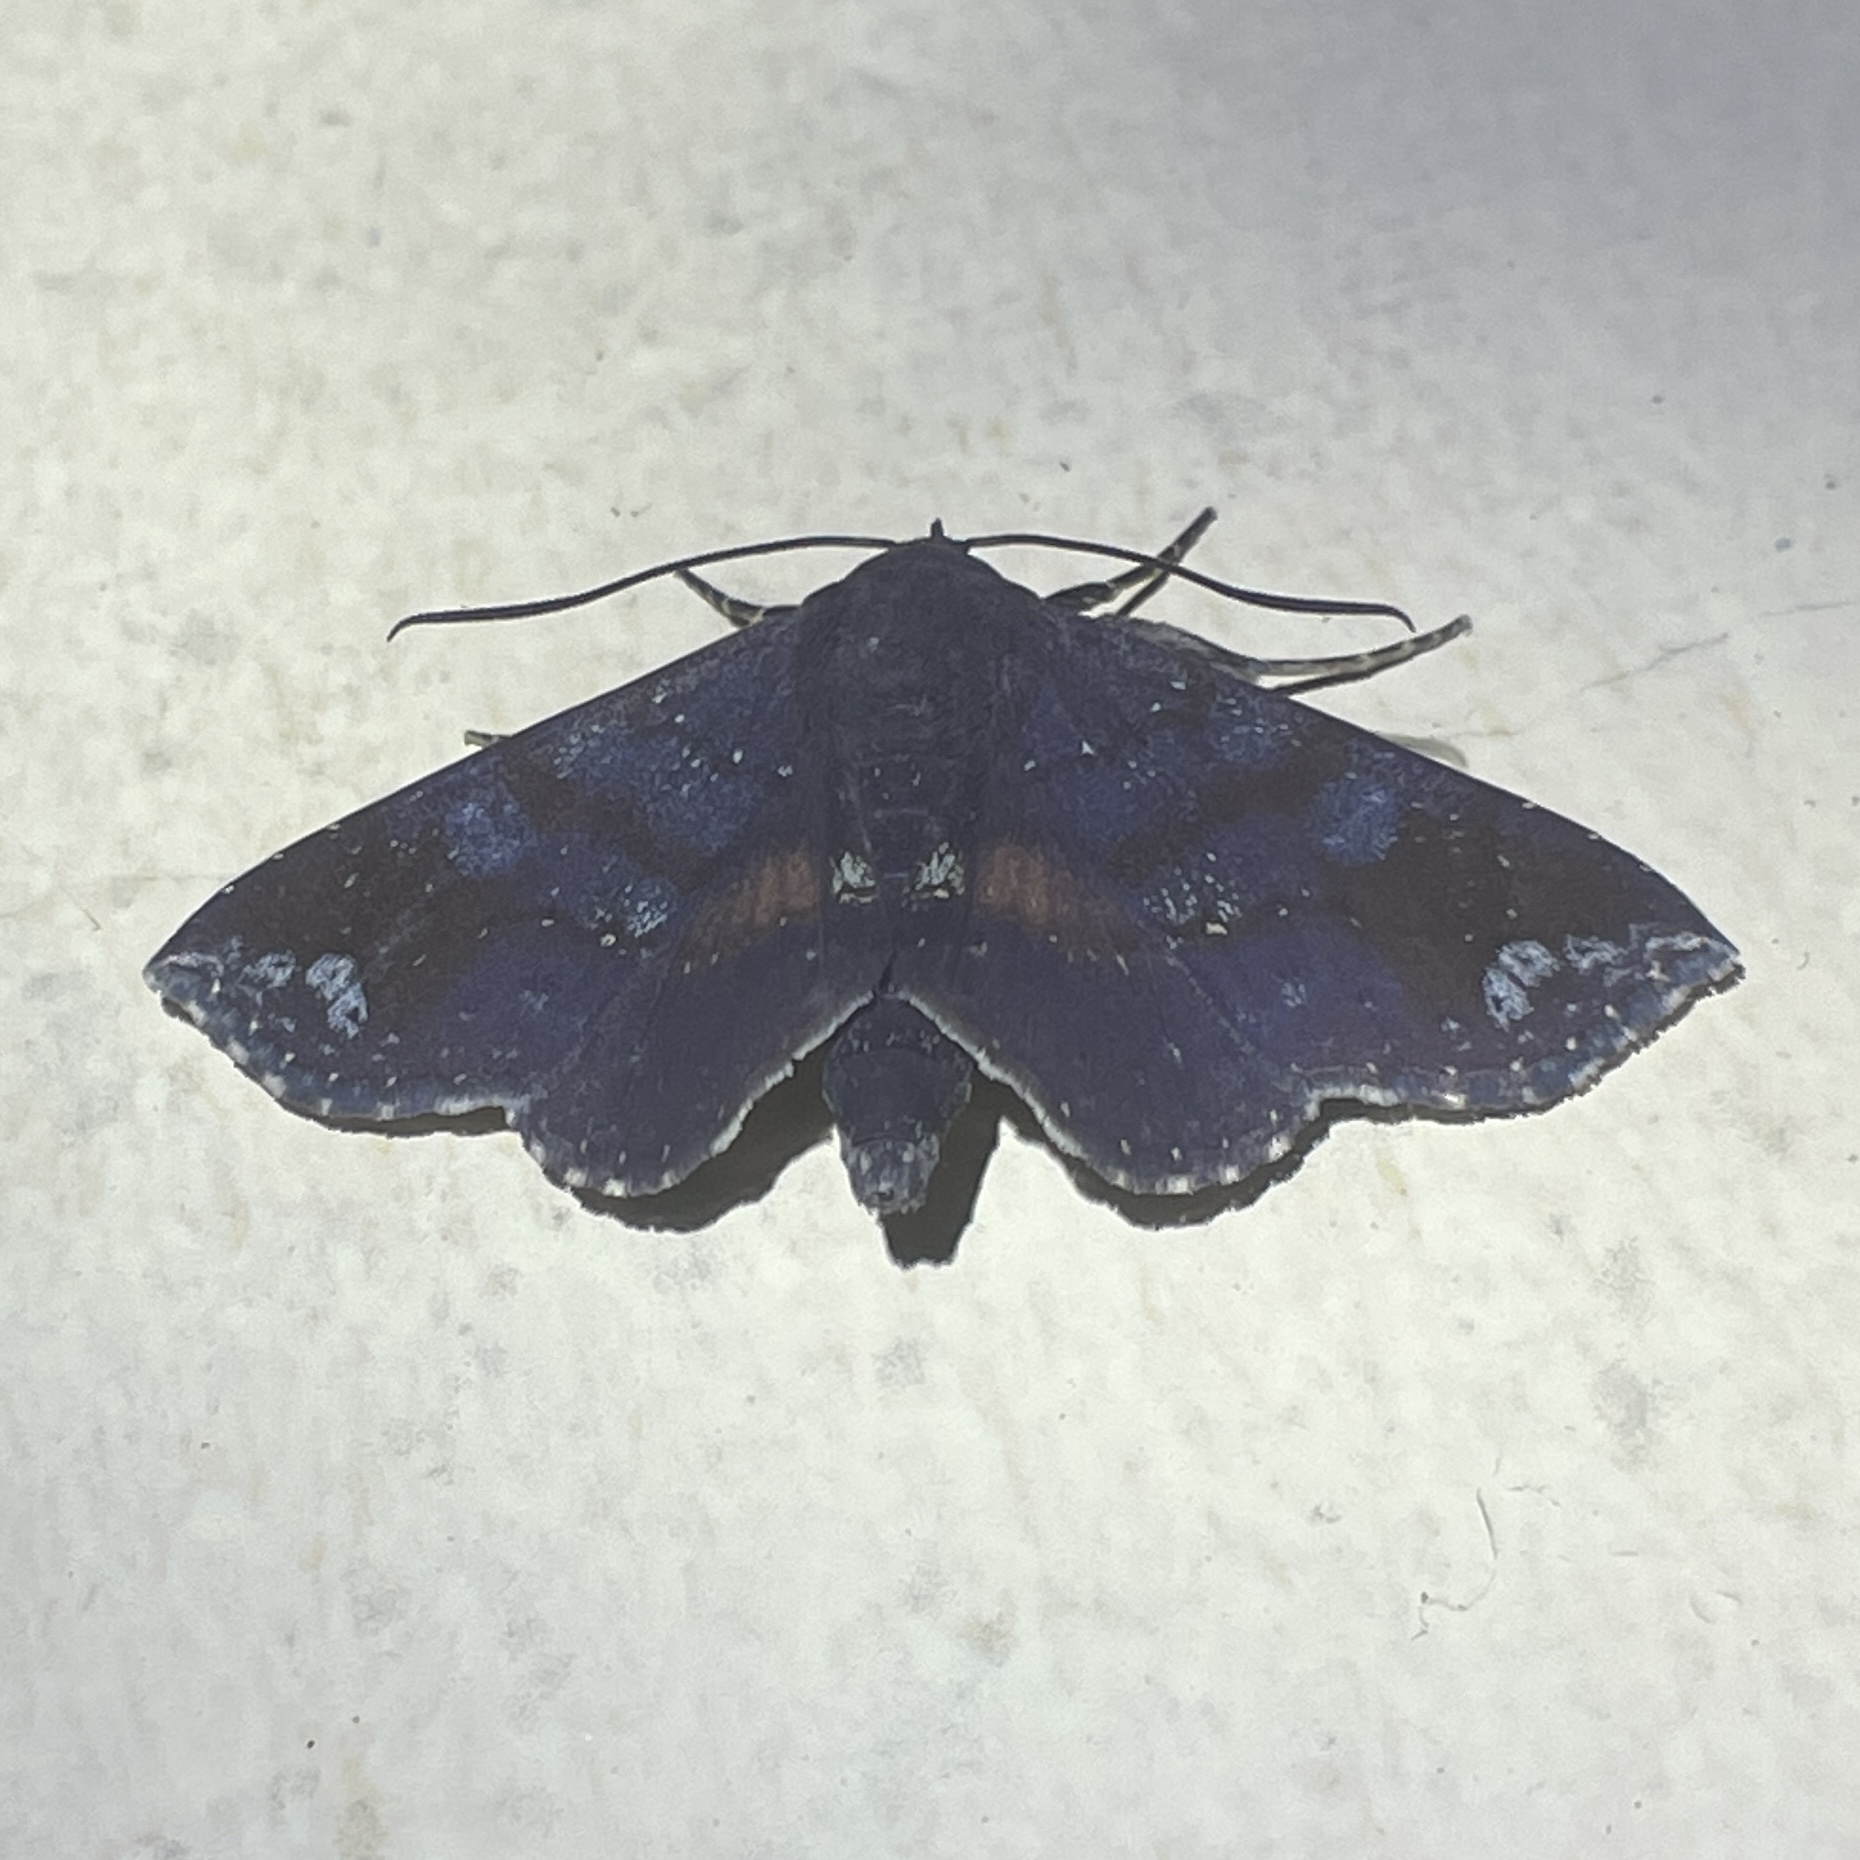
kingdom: Animalia
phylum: Arthropoda
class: Insecta
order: Lepidoptera
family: Erebidae
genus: Gabyna
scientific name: Gabyna placida
